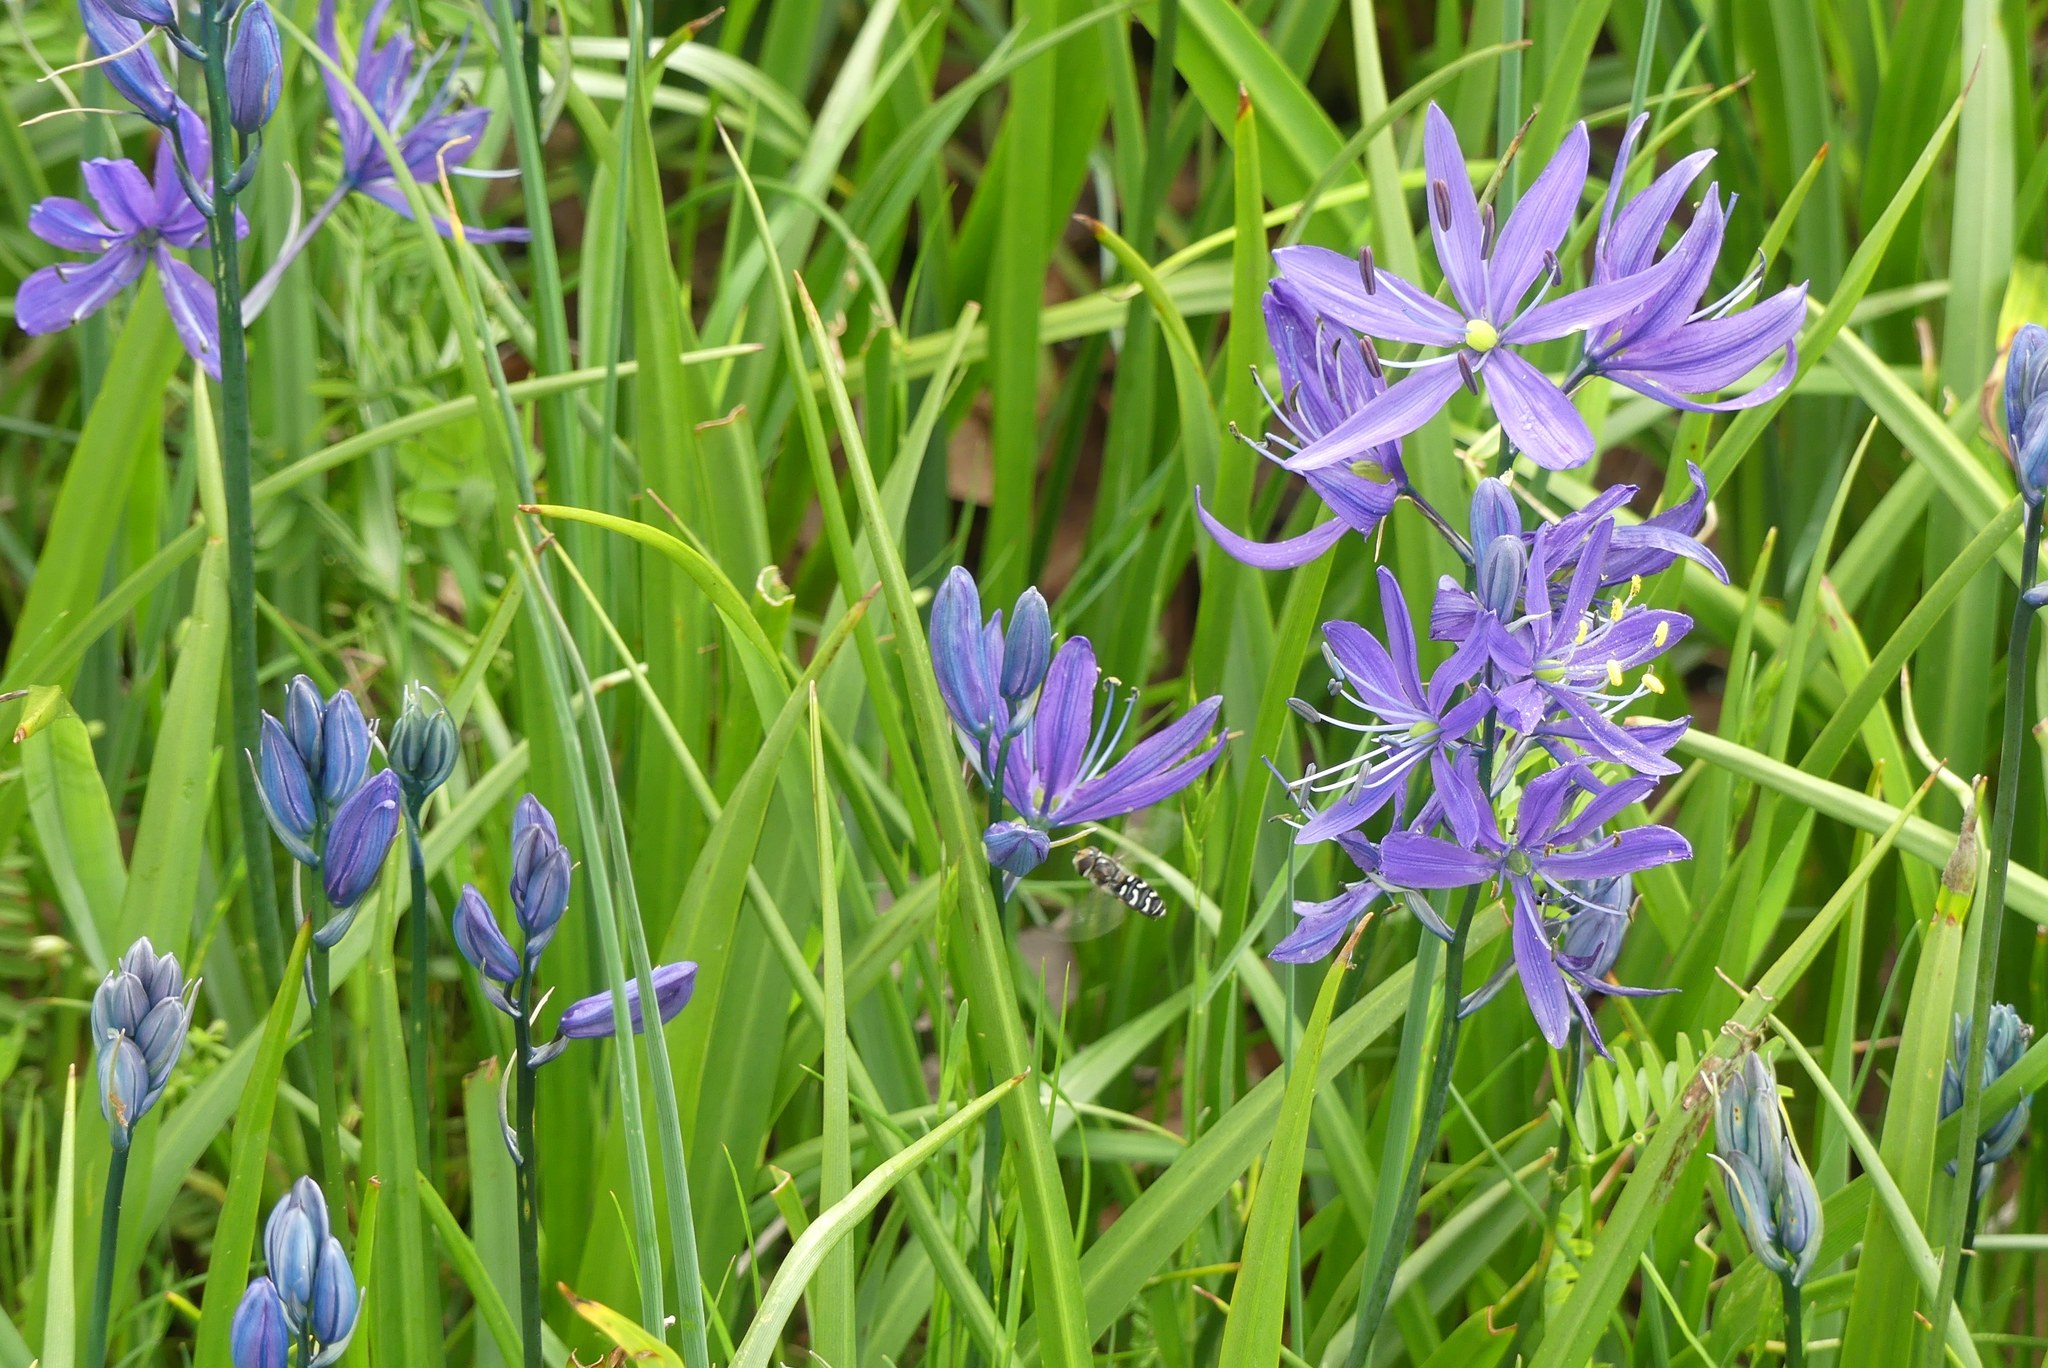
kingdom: Animalia
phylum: Arthropoda
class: Insecta
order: Diptera
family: Syrphidae
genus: Scaeva
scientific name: Scaeva affinis
